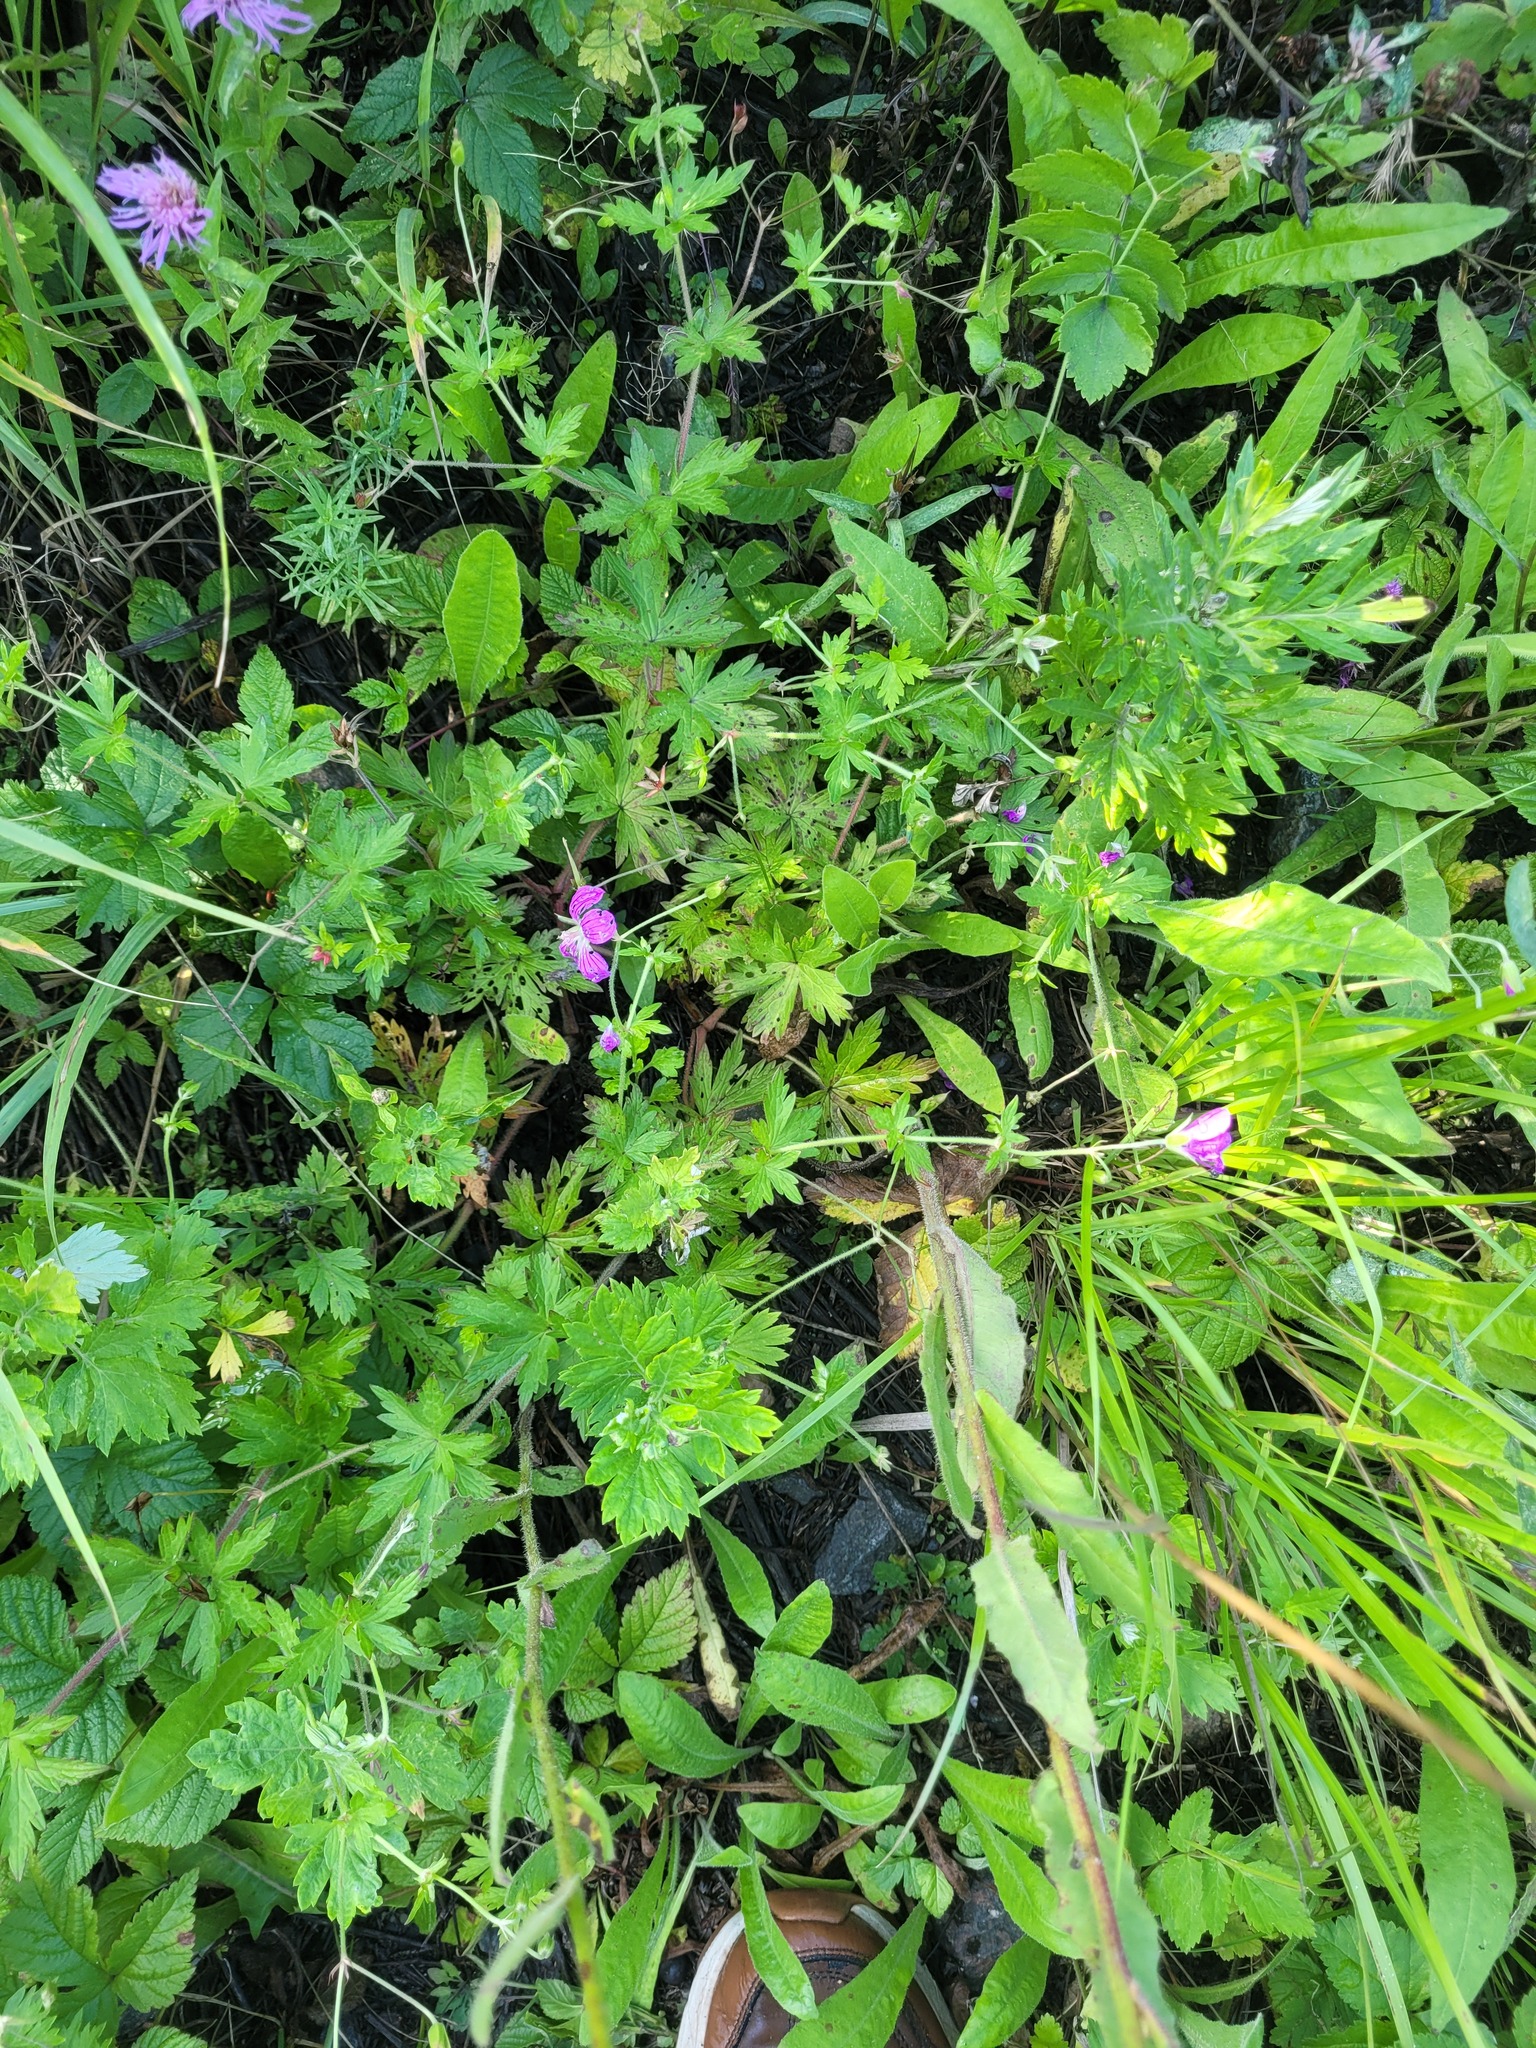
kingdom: Plantae
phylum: Tracheophyta
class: Magnoliopsida
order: Geraniales
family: Geraniaceae
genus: Geranium
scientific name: Geranium palustre
